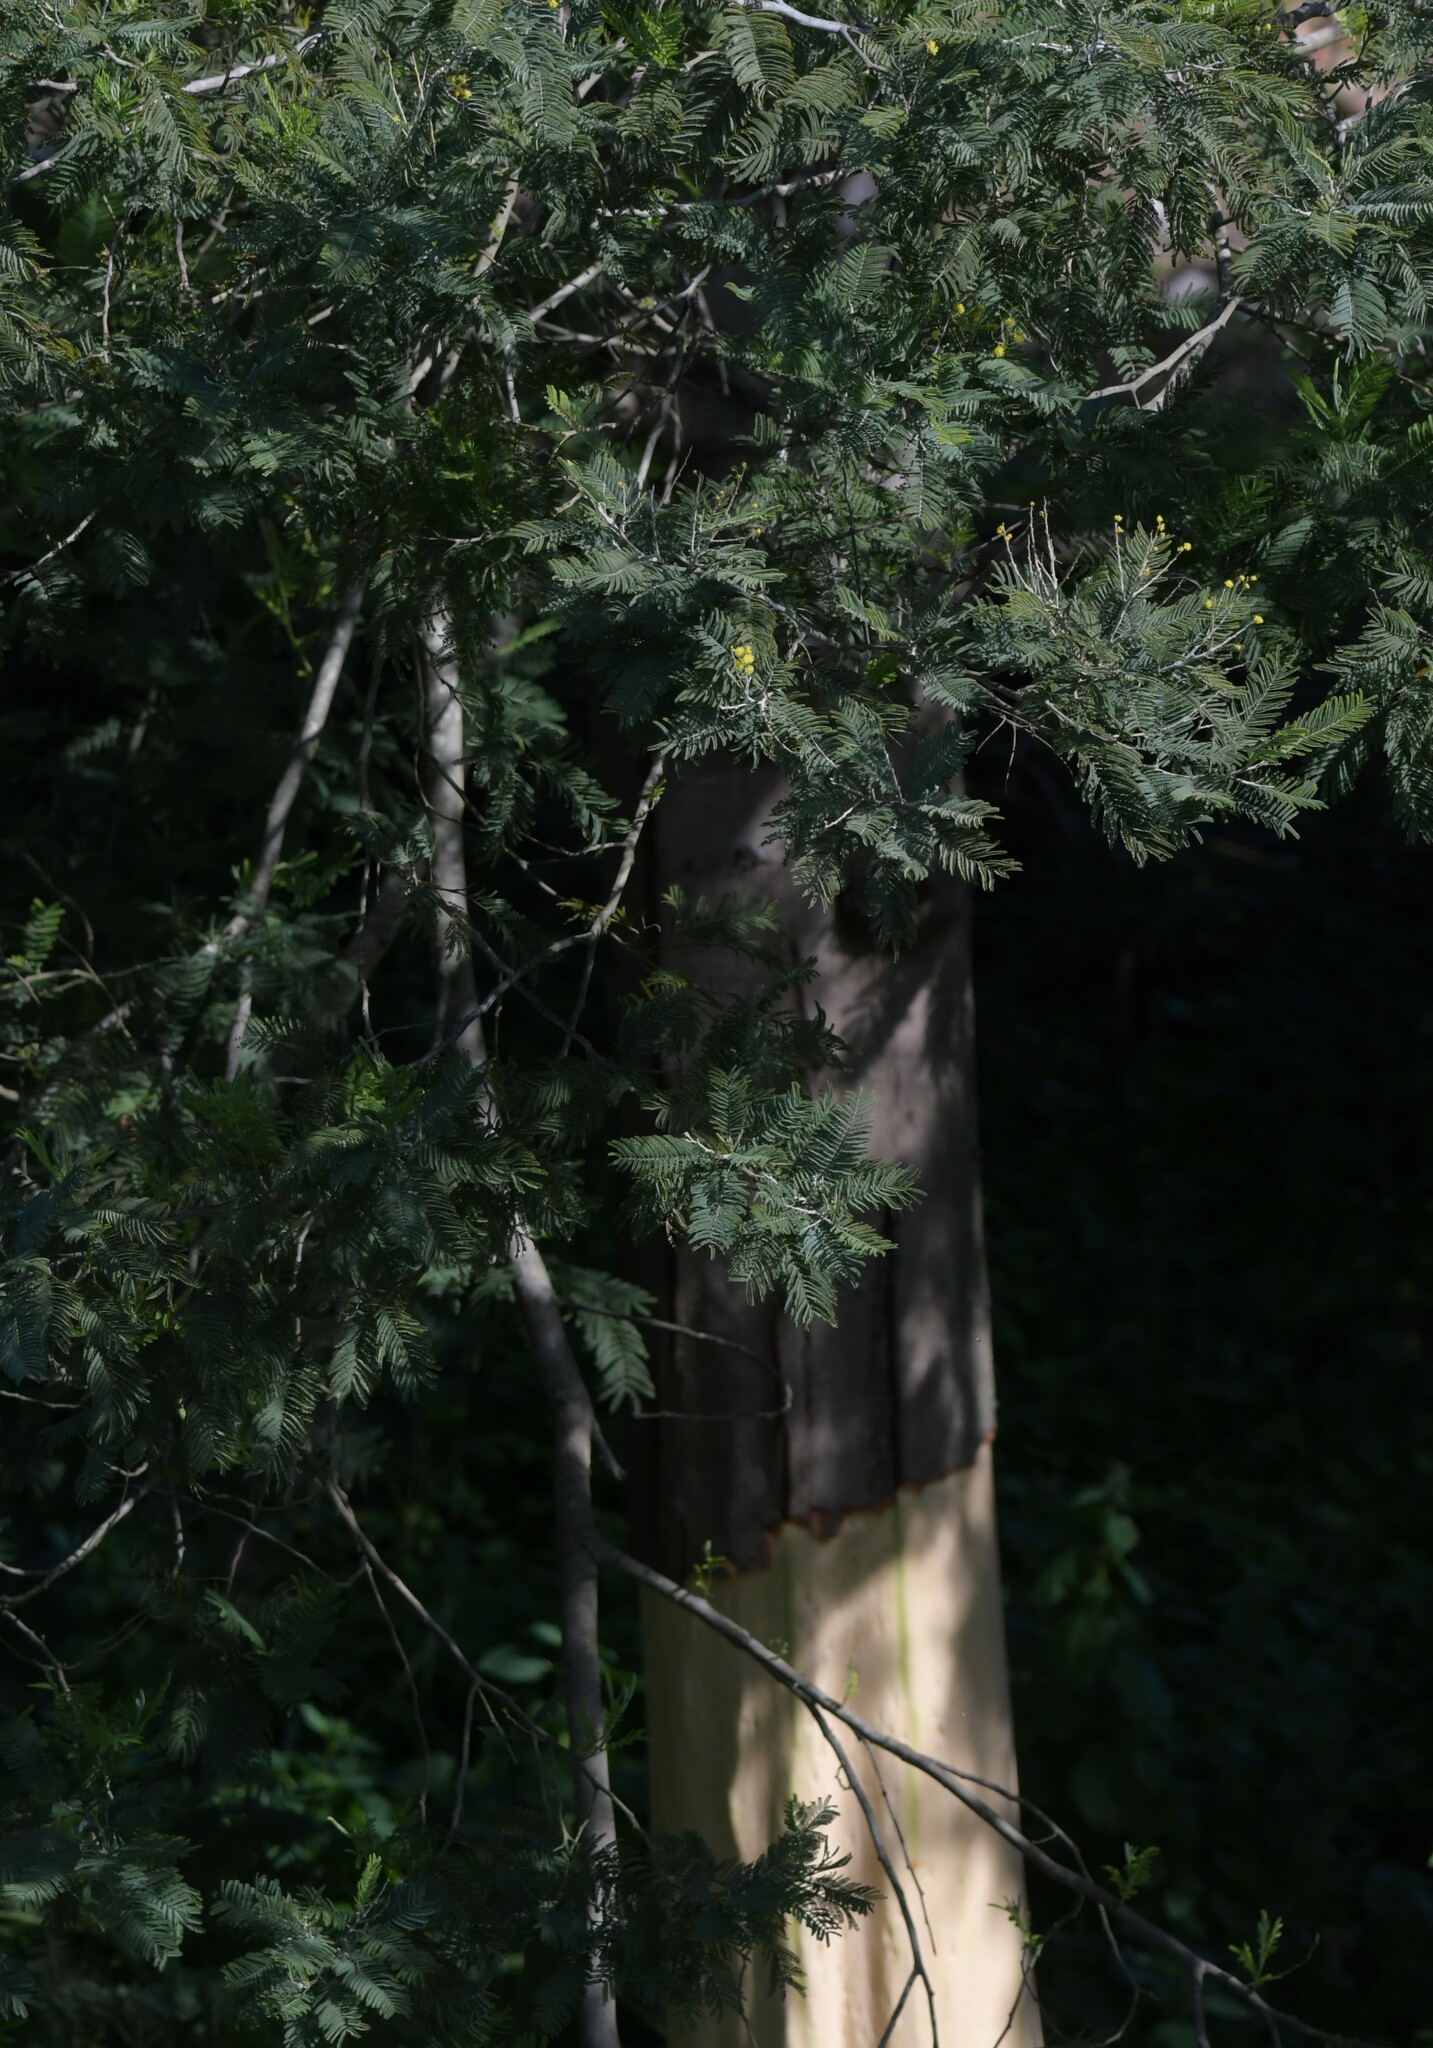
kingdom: Plantae
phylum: Tracheophyta
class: Magnoliopsida
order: Fabales
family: Fabaceae
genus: Acacia
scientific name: Acacia dealbata
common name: Silver wattle
